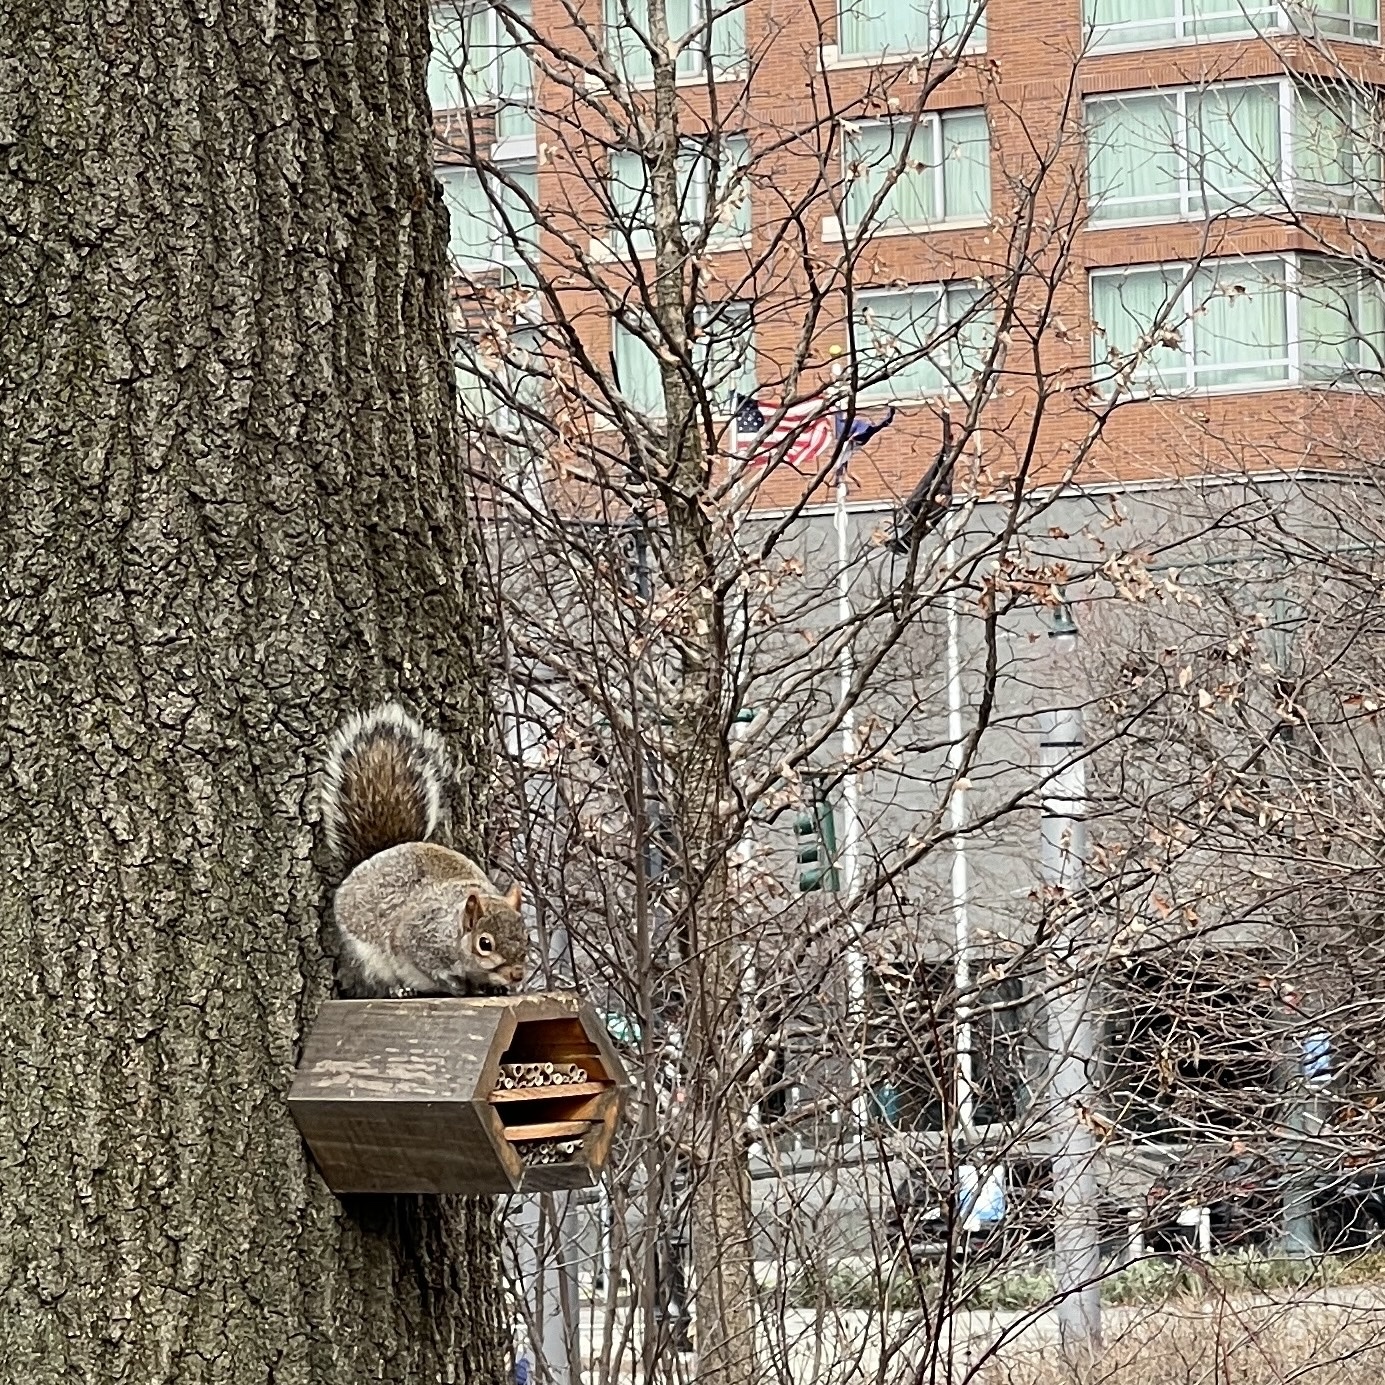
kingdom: Animalia
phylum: Chordata
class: Mammalia
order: Rodentia
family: Sciuridae
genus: Sciurus
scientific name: Sciurus carolinensis
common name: Eastern gray squirrel
